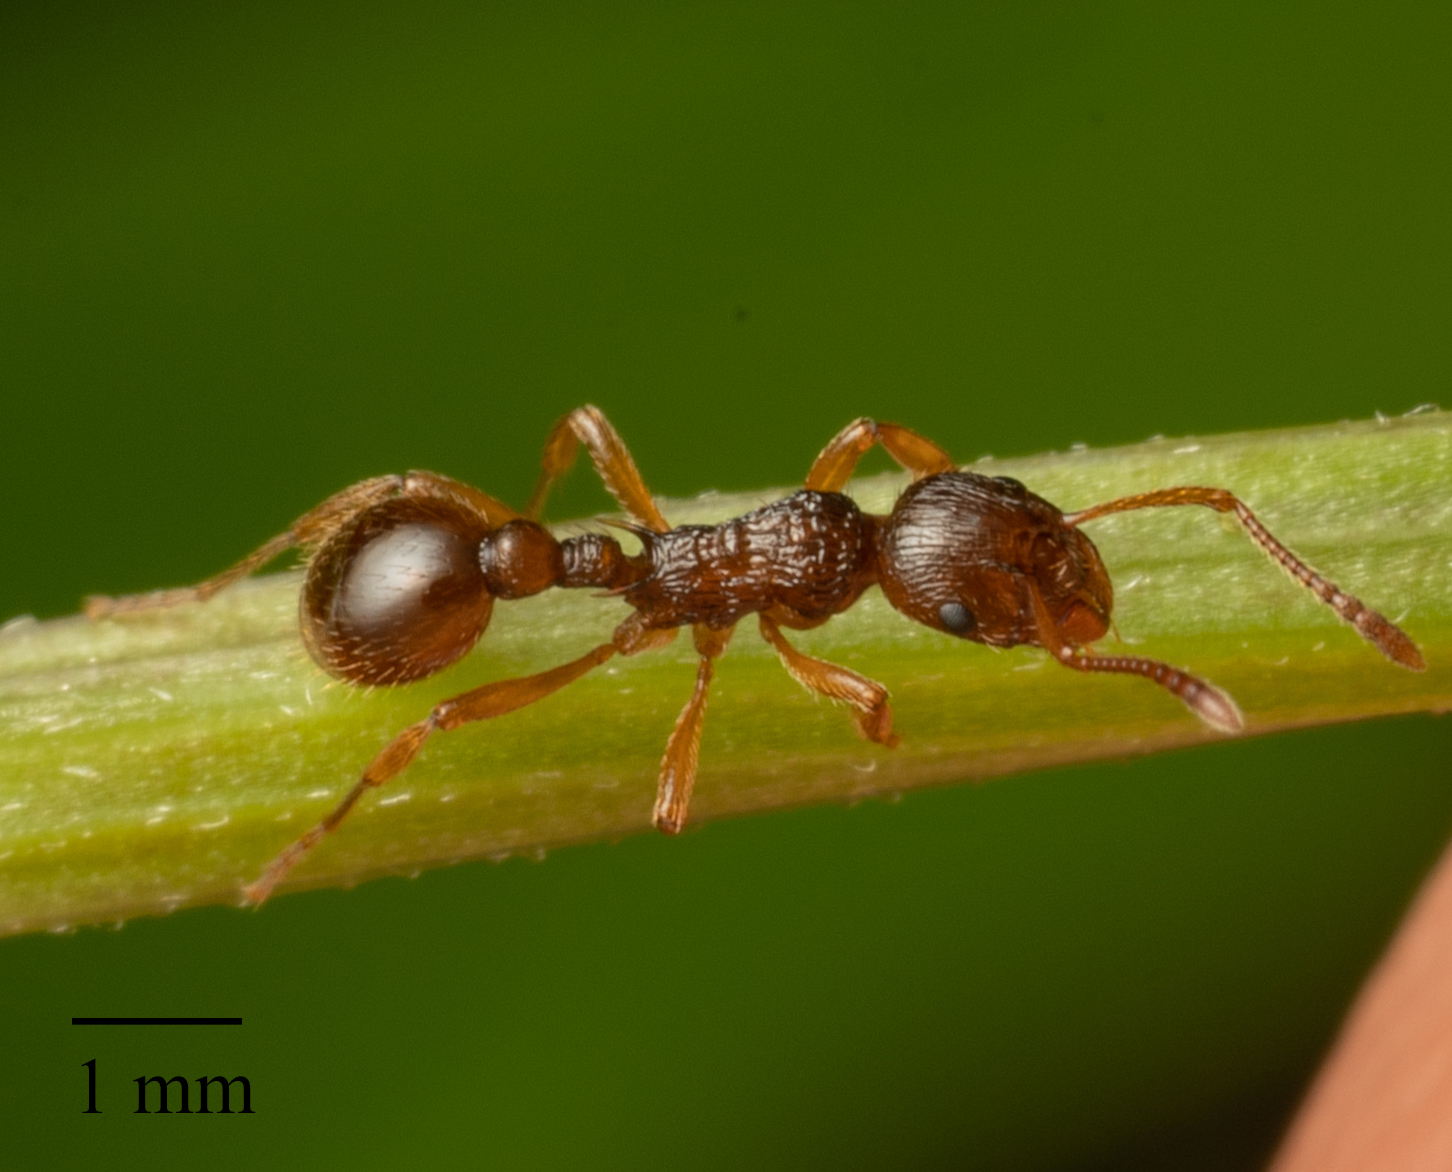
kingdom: Animalia
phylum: Arthropoda
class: Insecta
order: Hymenoptera
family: Formicidae
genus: Myrmica
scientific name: Myrmica ruginodis
